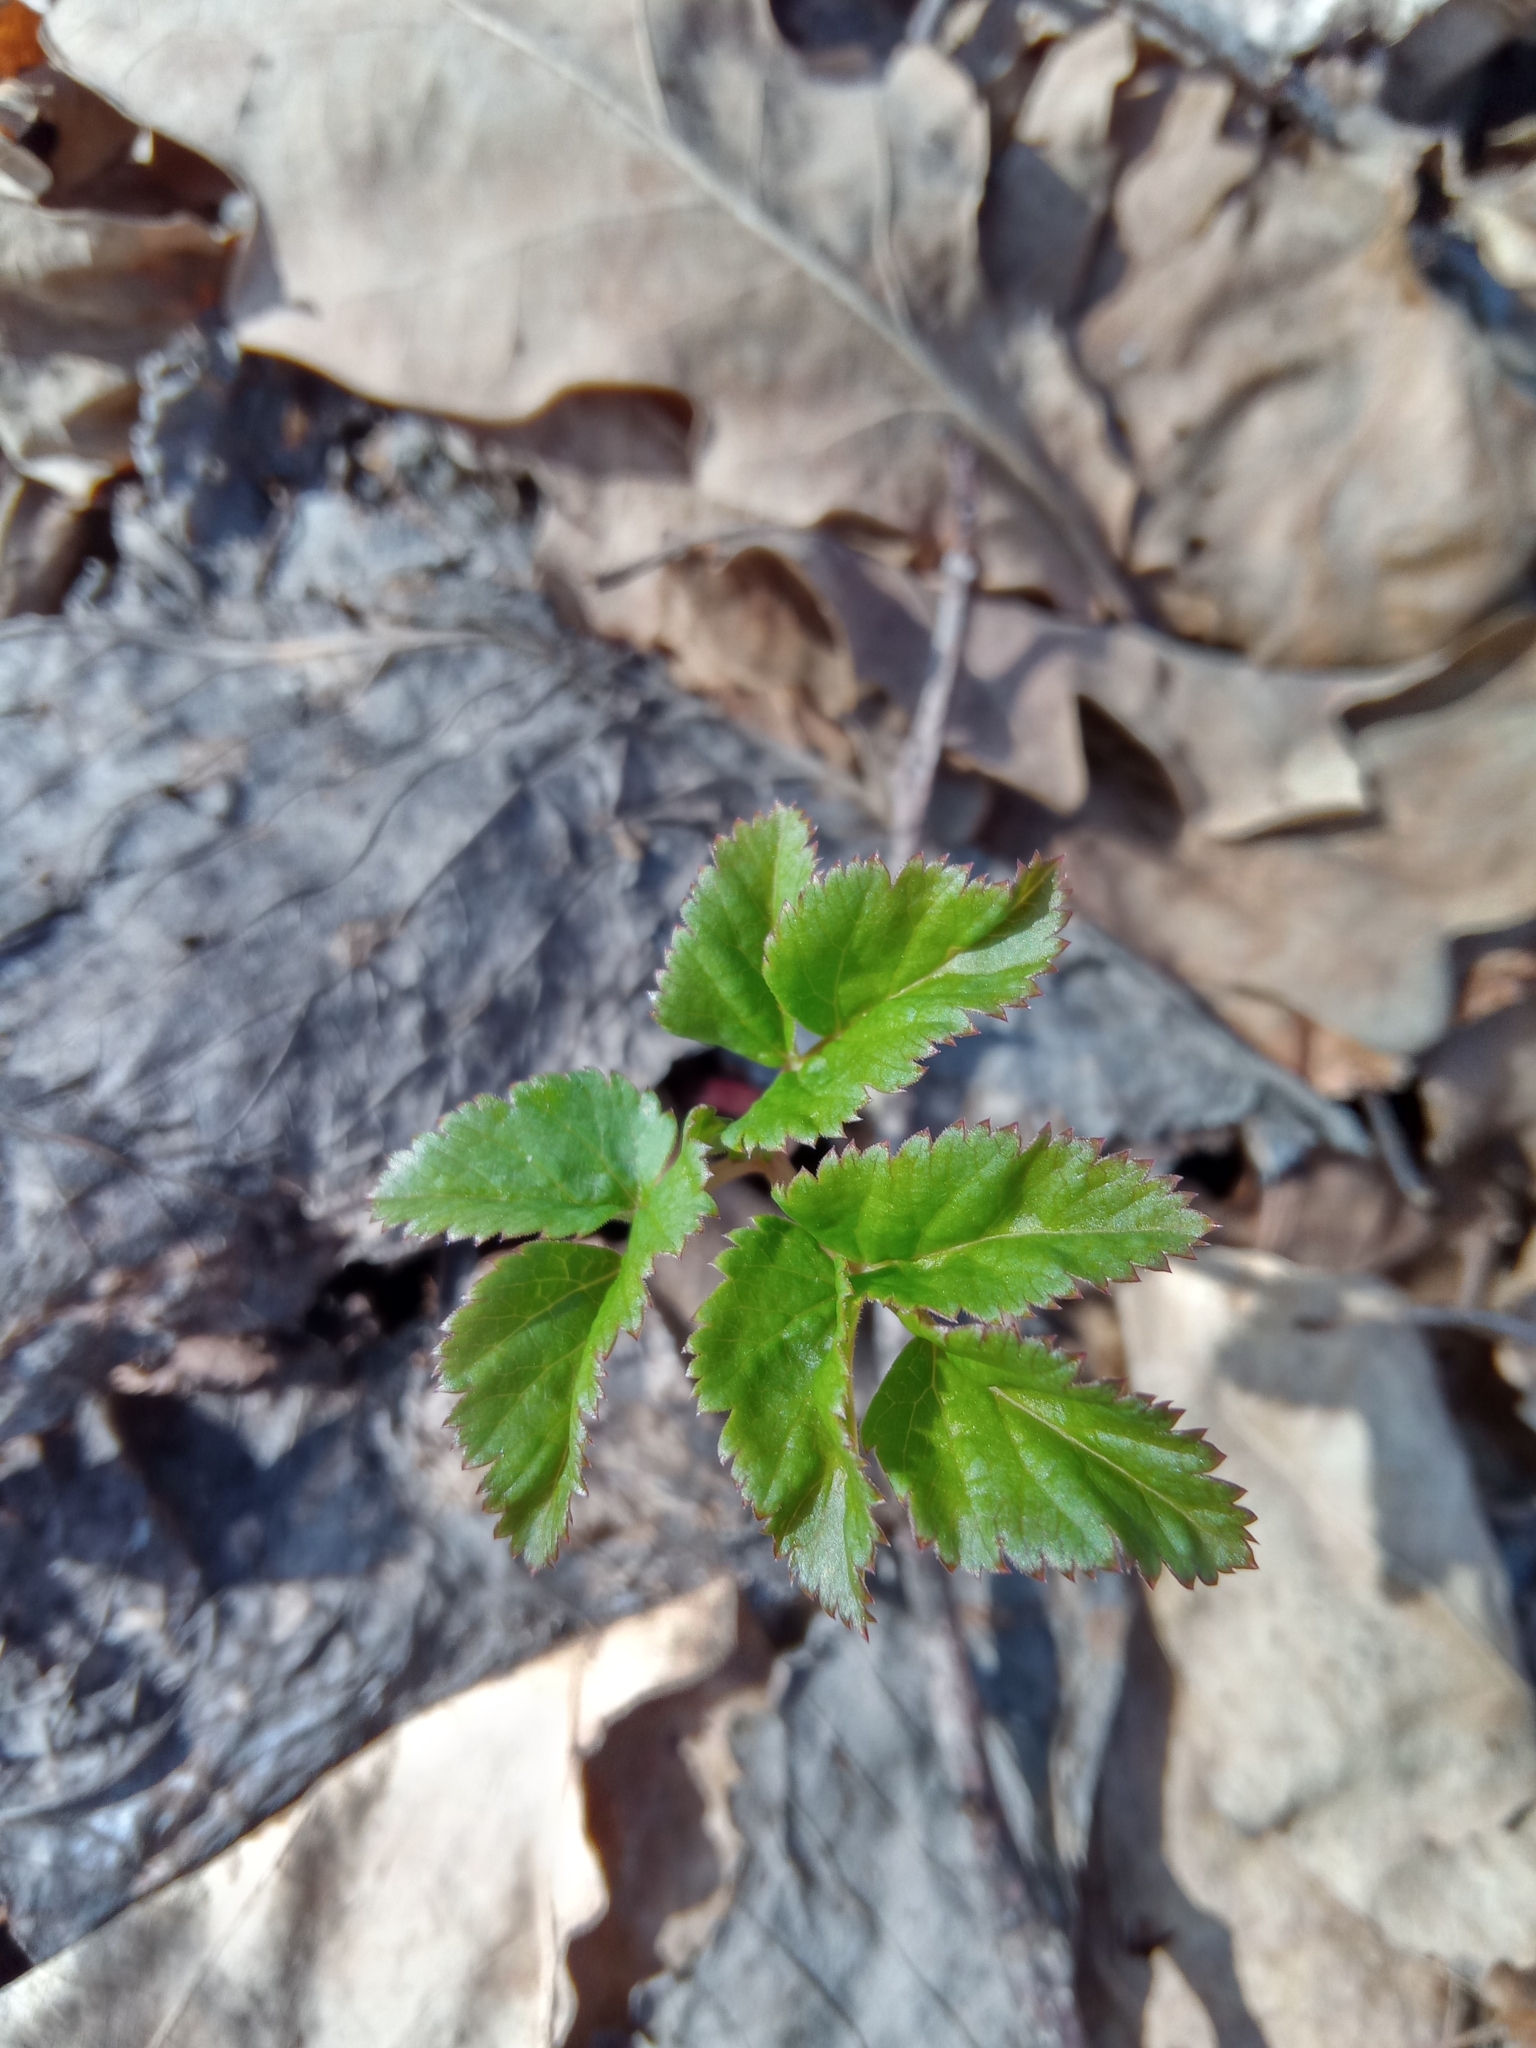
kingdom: Plantae
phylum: Tracheophyta
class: Magnoliopsida
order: Apiales
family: Apiaceae
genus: Aegopodium
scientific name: Aegopodium podagraria
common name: Ground-elder
